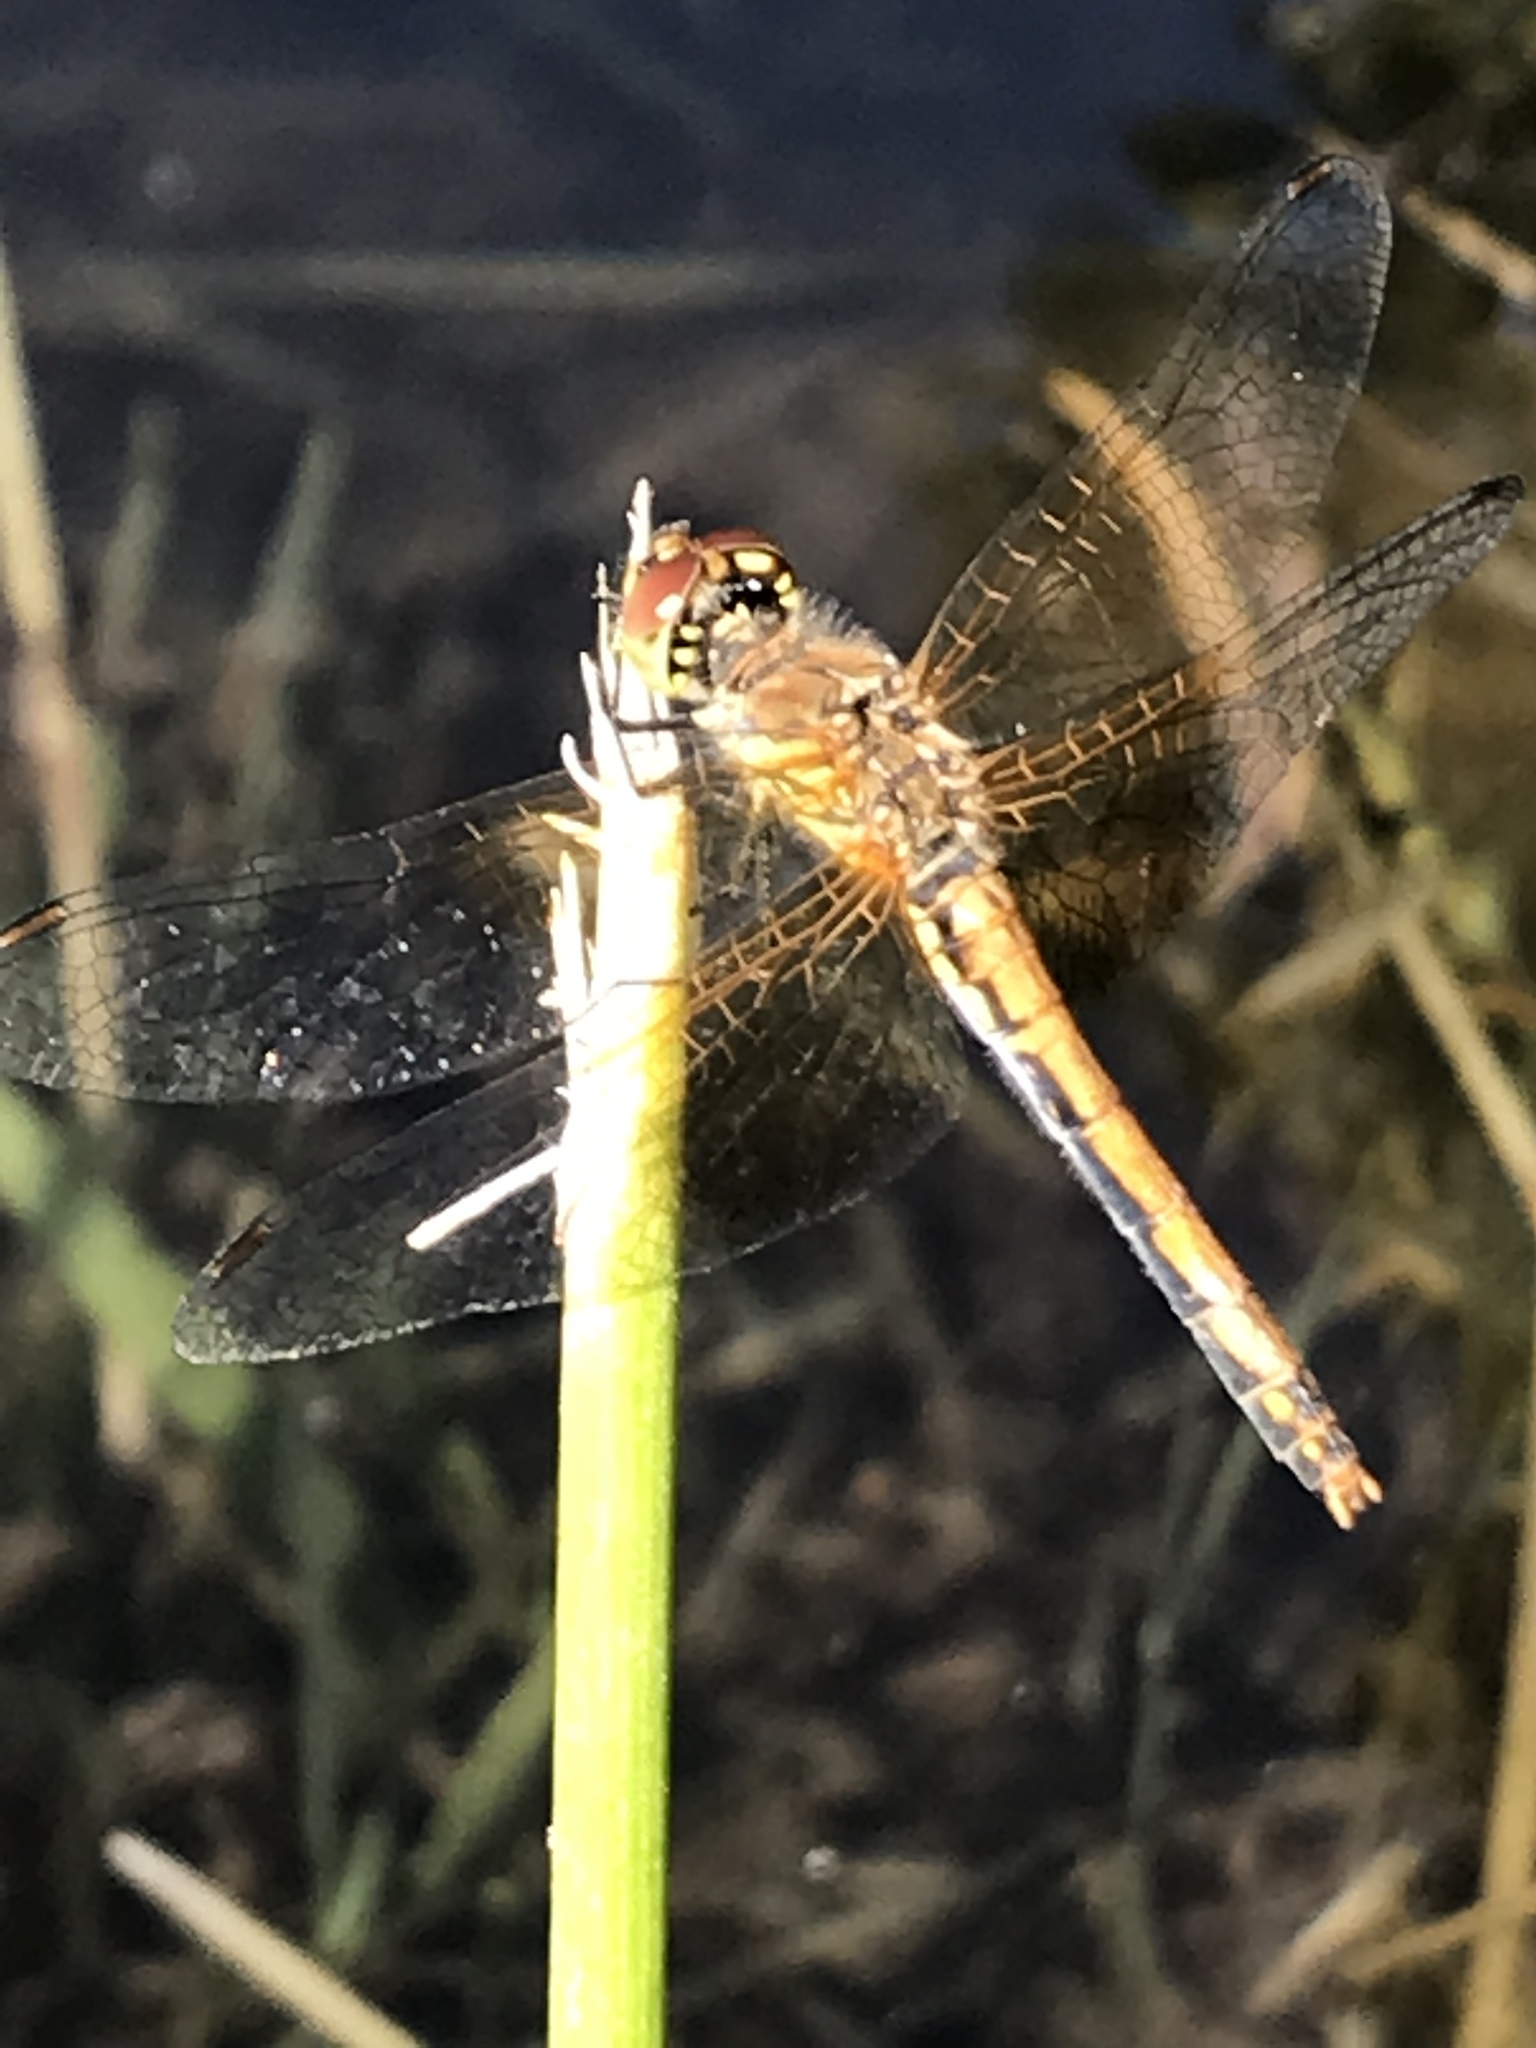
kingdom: Animalia
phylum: Arthropoda
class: Insecta
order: Odonata
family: Libellulidae
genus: Sympetrum
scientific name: Sympetrum semicinctum
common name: Band-winged meadowhawk
